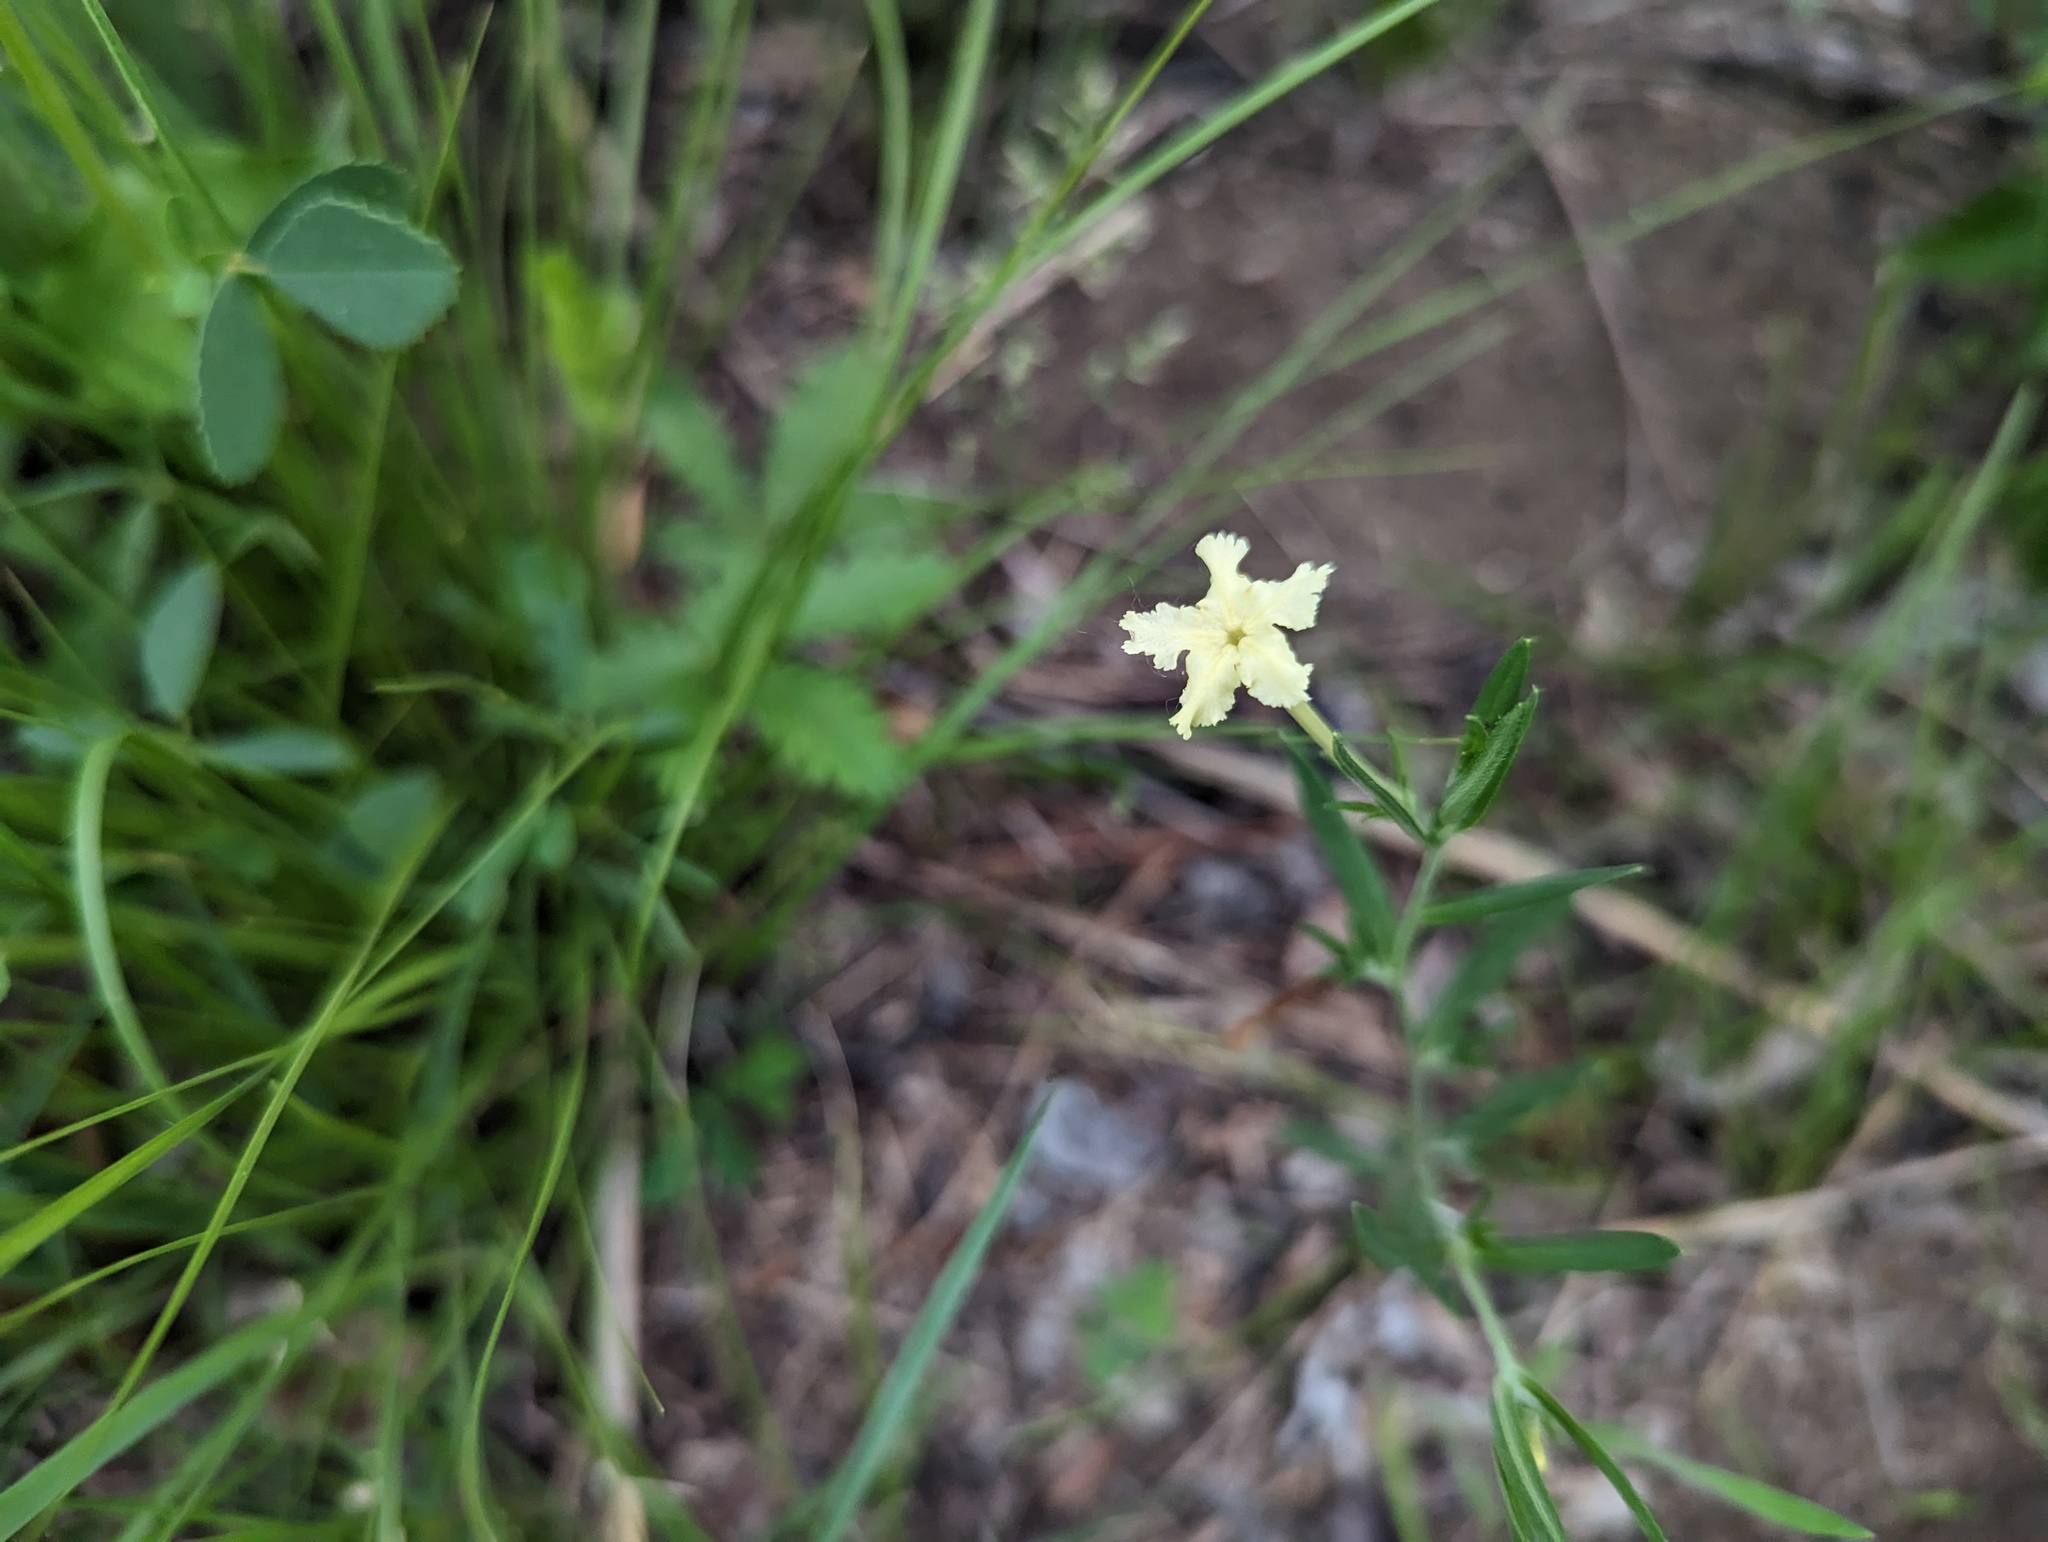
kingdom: Plantae
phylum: Tracheophyta
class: Magnoliopsida
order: Boraginales
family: Boraginaceae
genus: Lithospermum
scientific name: Lithospermum incisum
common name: Fringed gromwell
